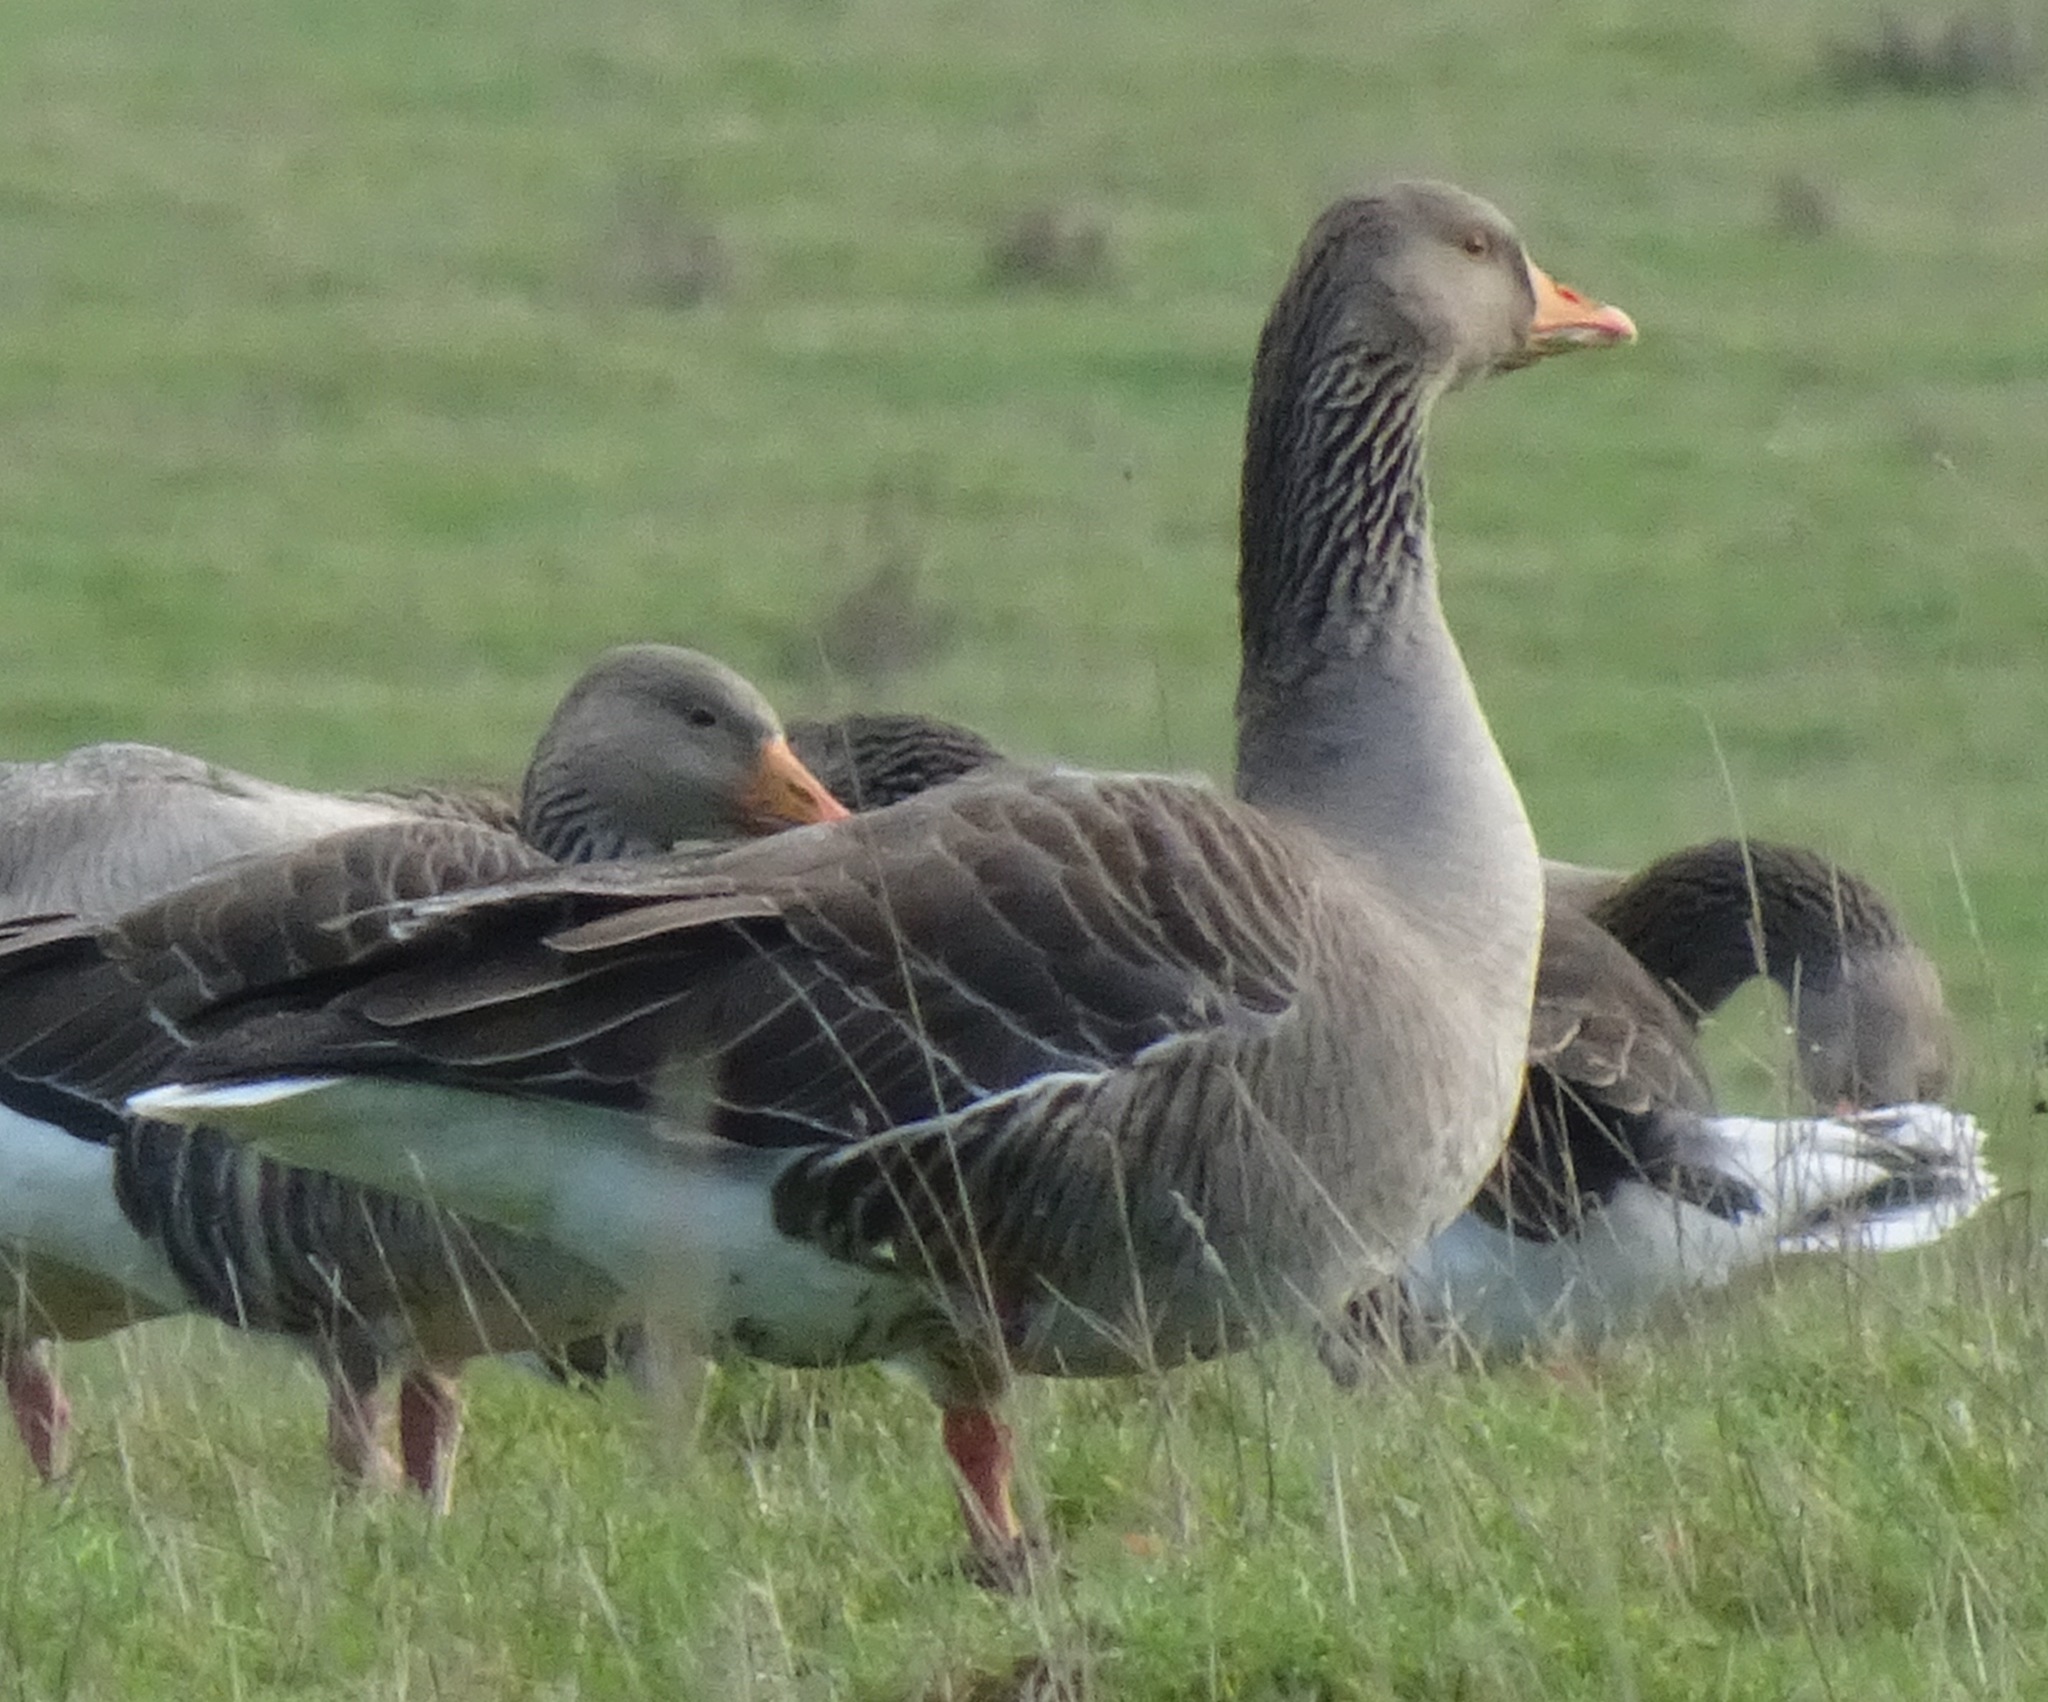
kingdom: Animalia
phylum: Chordata
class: Aves
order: Anseriformes
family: Anatidae
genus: Anser
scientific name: Anser anser
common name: Greylag goose
